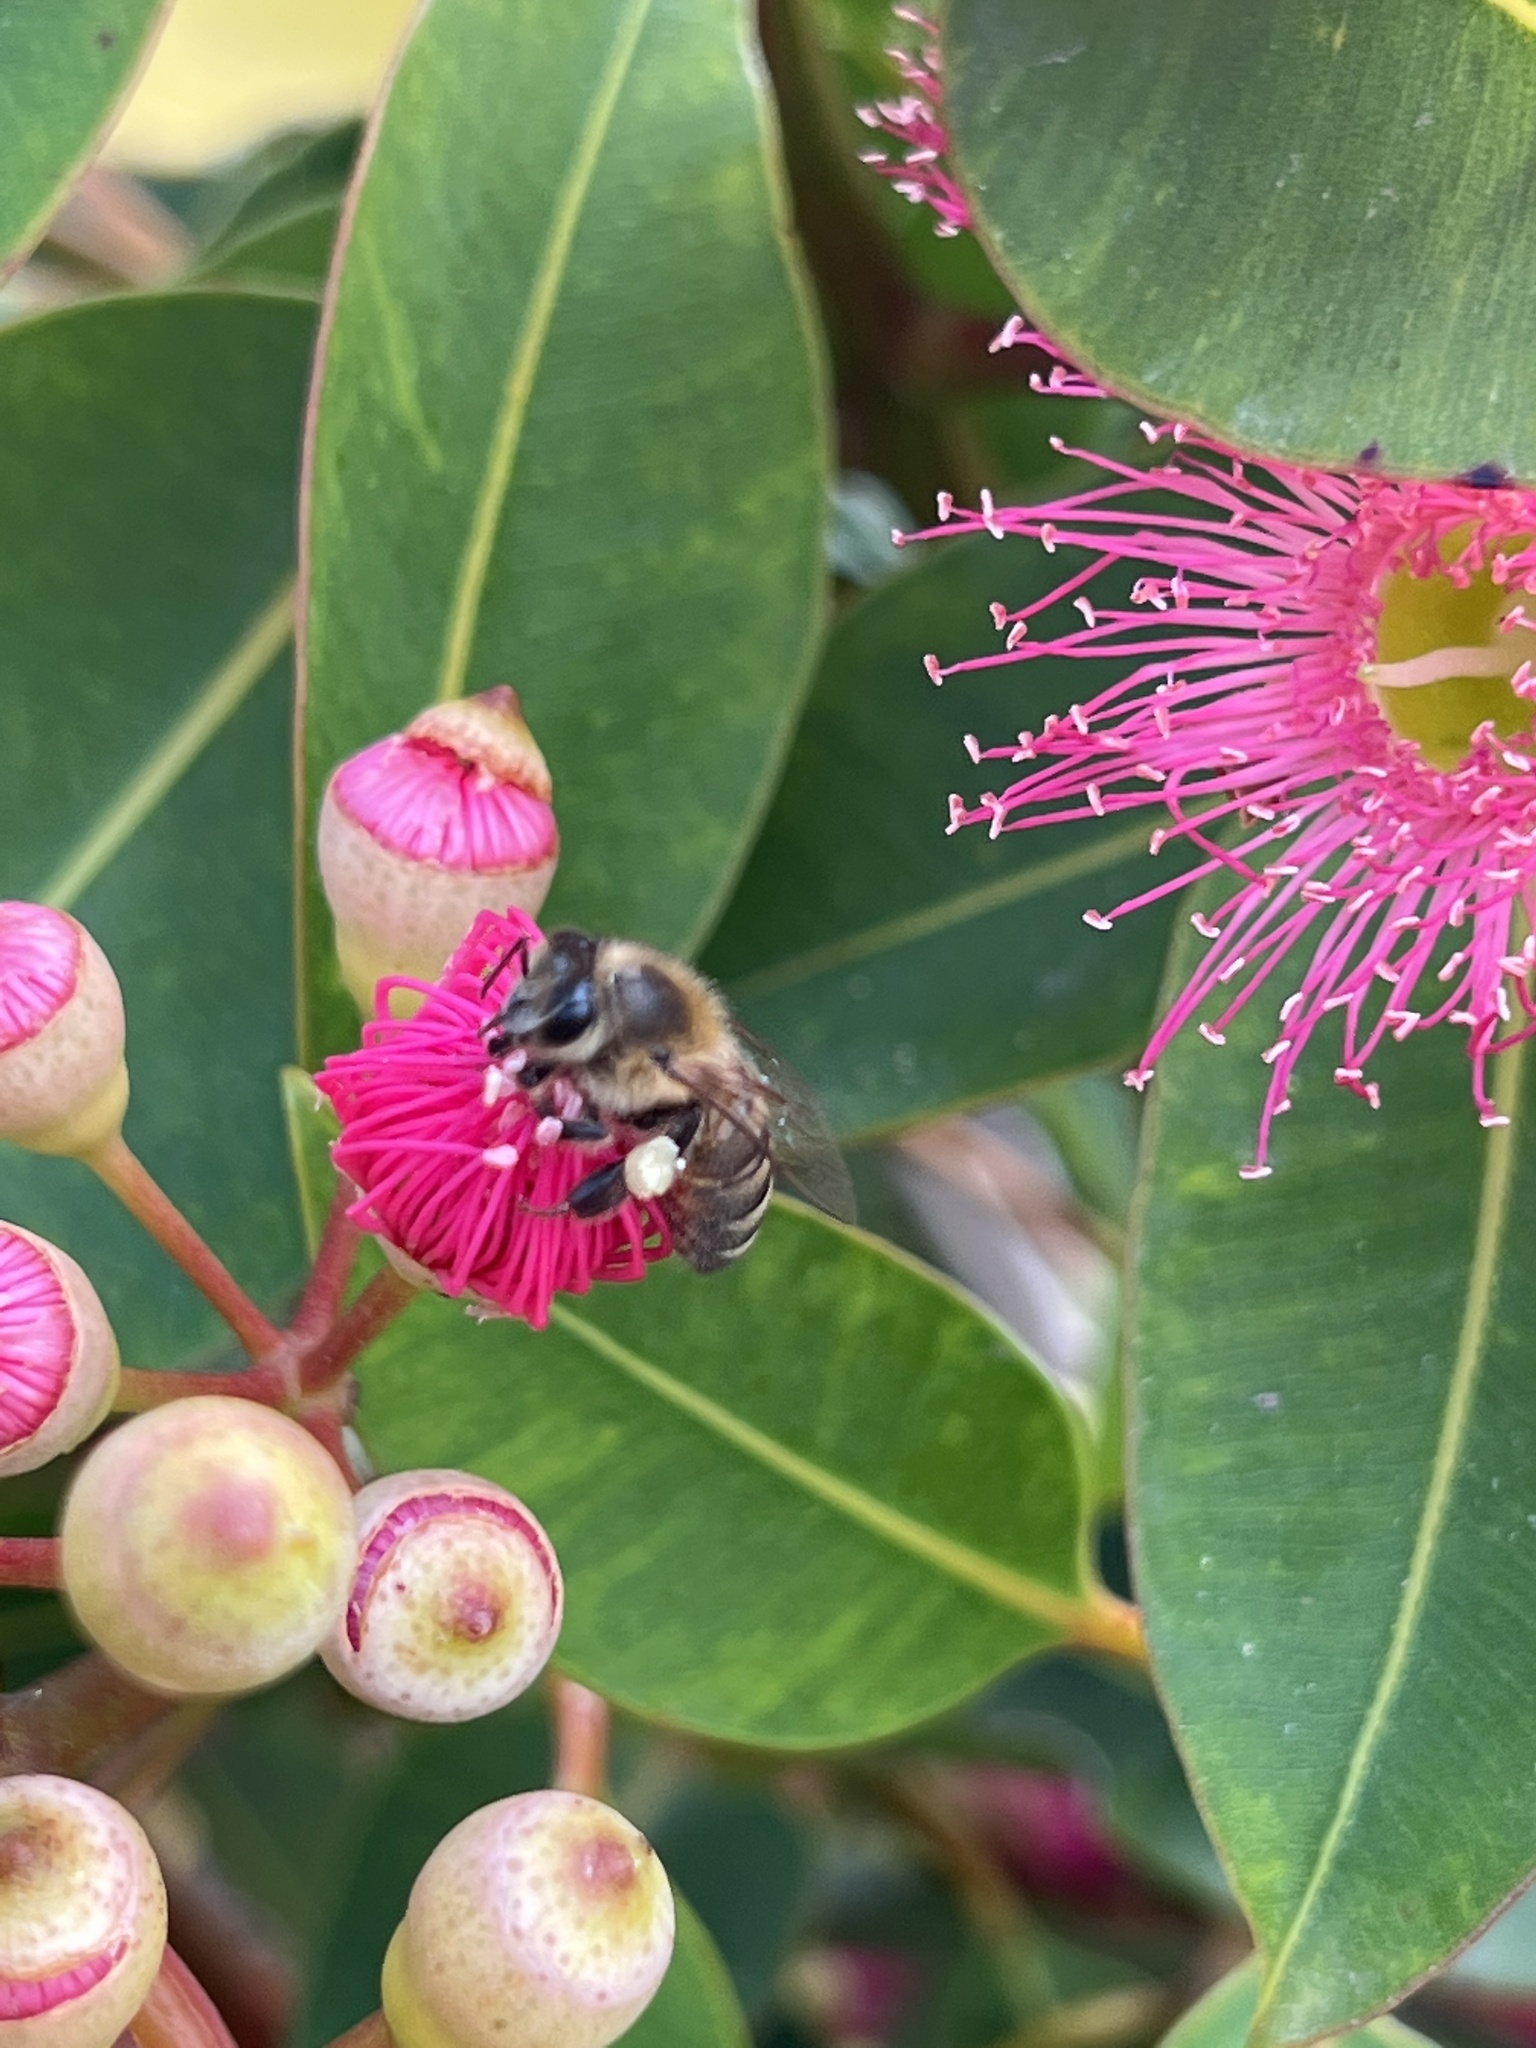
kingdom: Animalia
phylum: Arthropoda
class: Insecta
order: Hymenoptera
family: Apidae
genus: Apis
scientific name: Apis mellifera
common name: Honey bee
